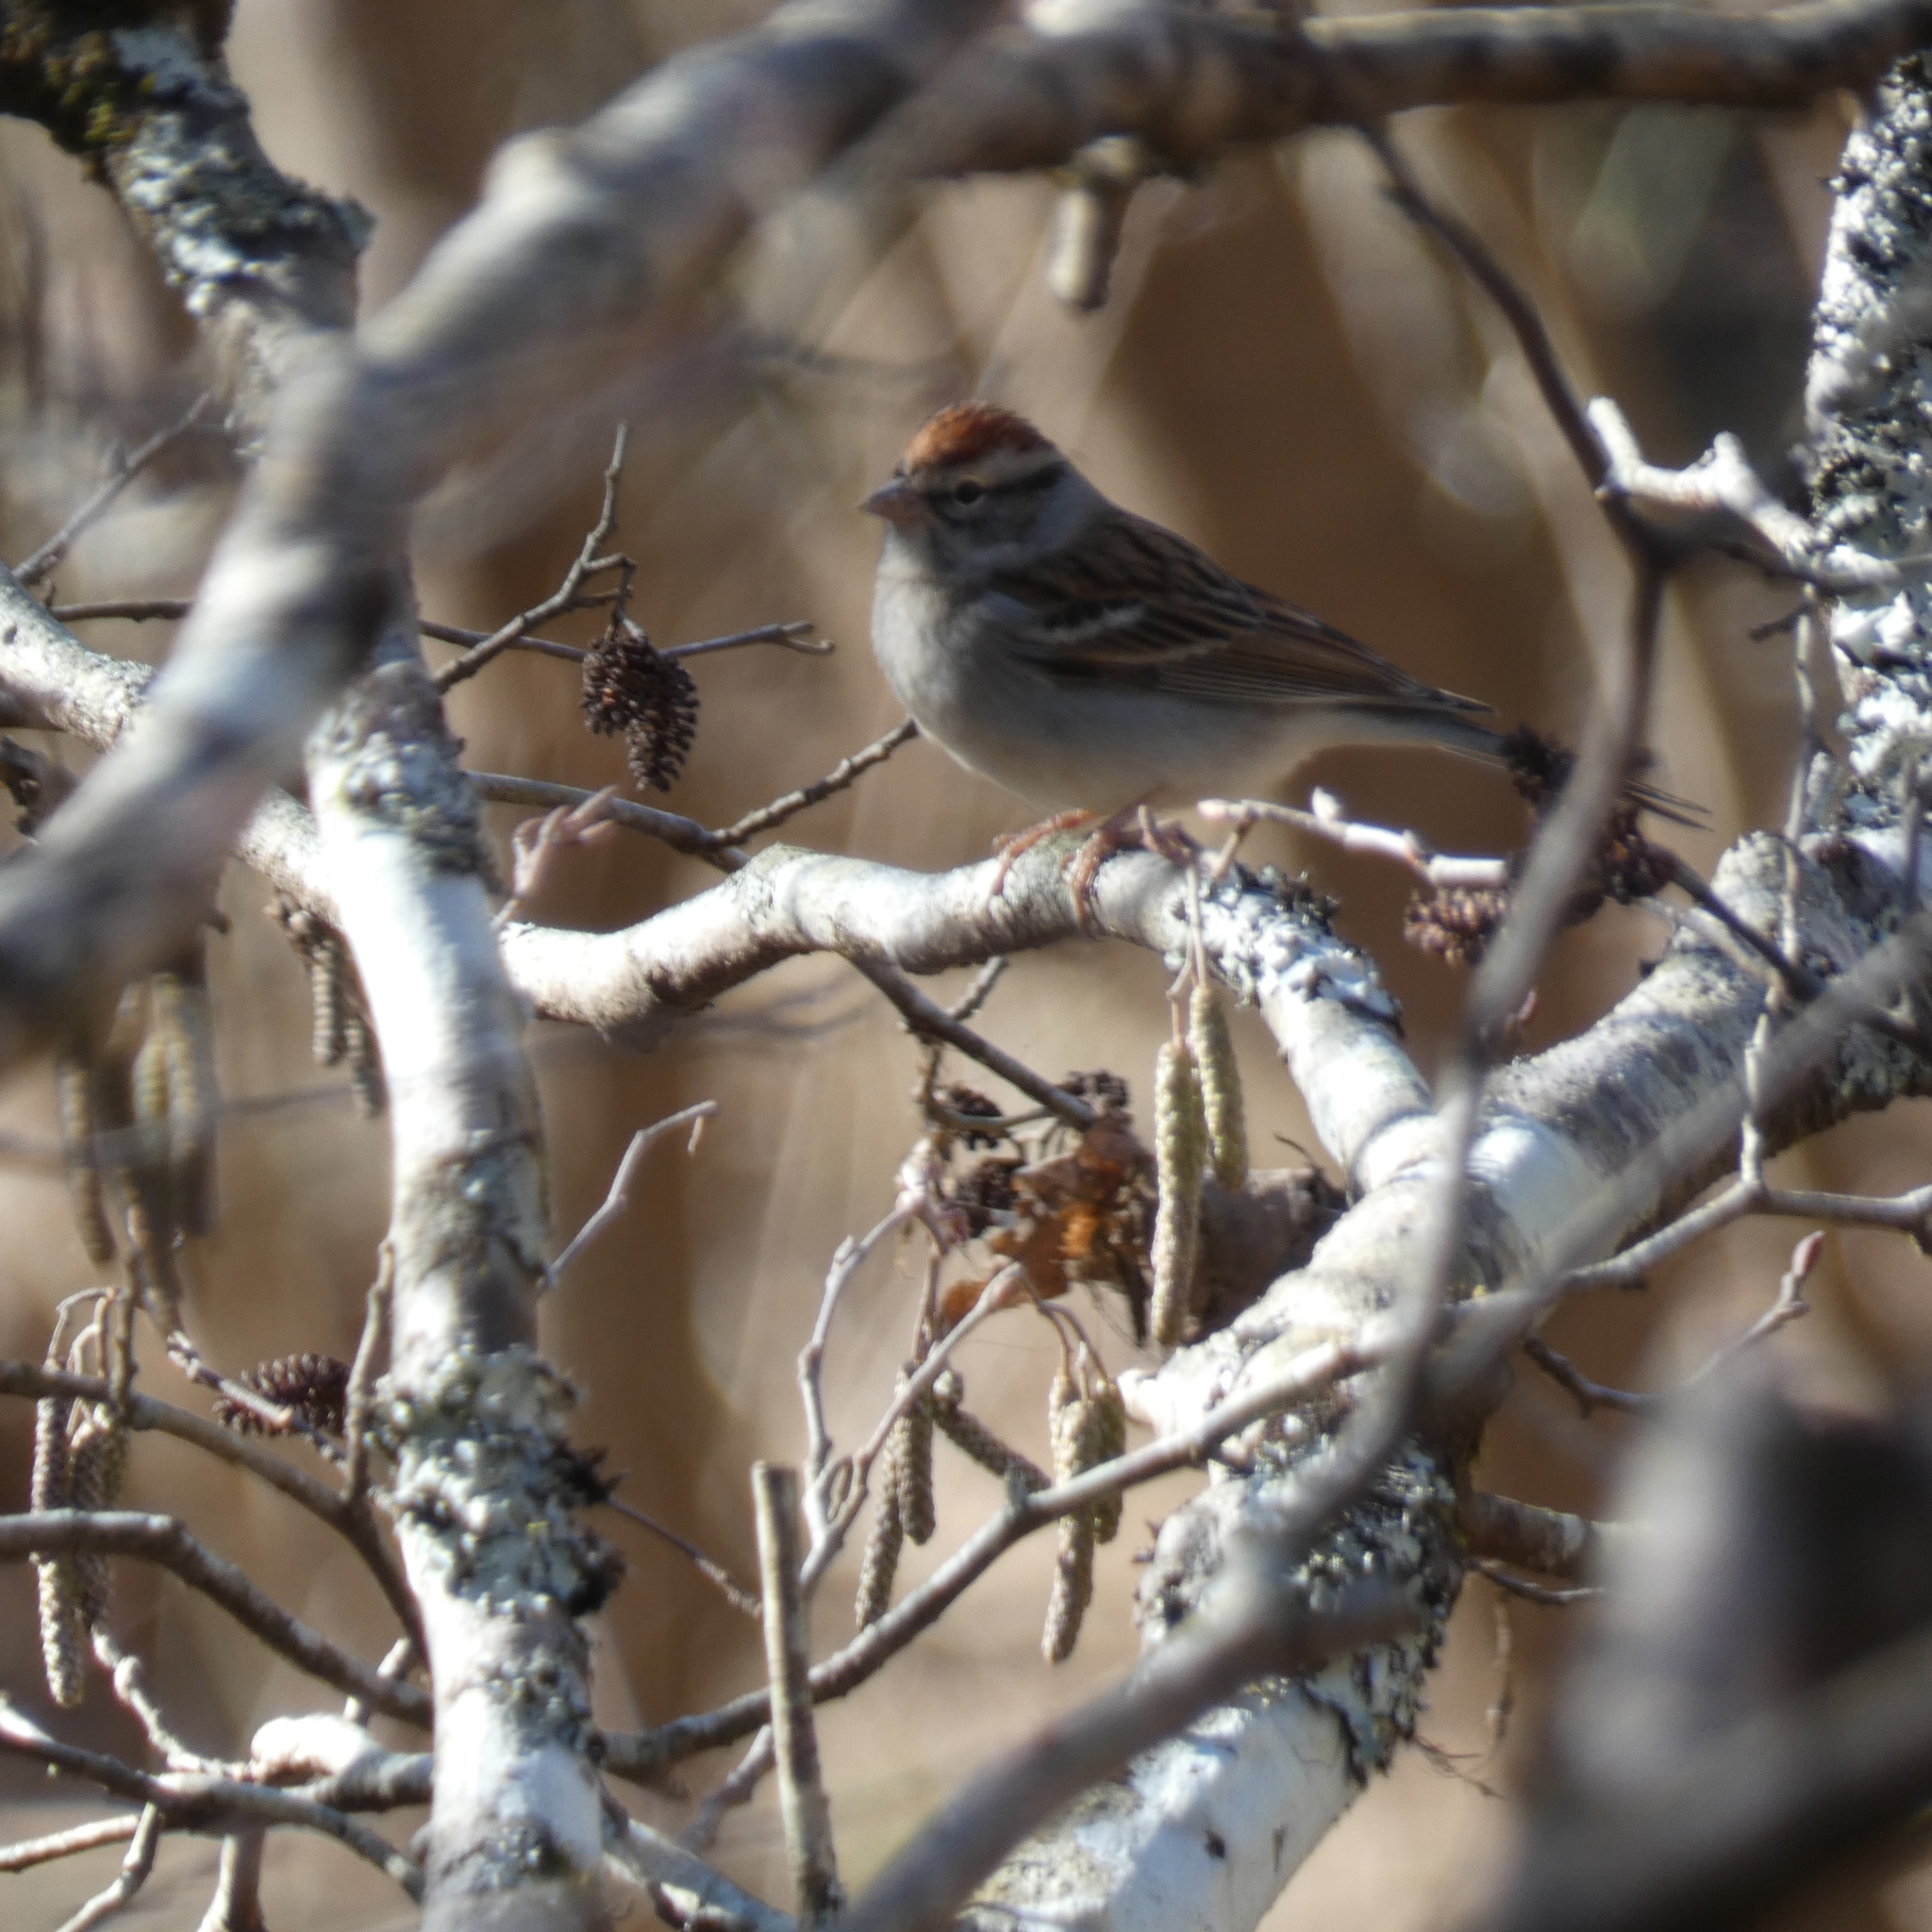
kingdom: Animalia
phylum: Chordata
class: Aves
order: Passeriformes
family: Passerellidae
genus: Spizella
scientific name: Spizella passerina
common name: Chipping sparrow
